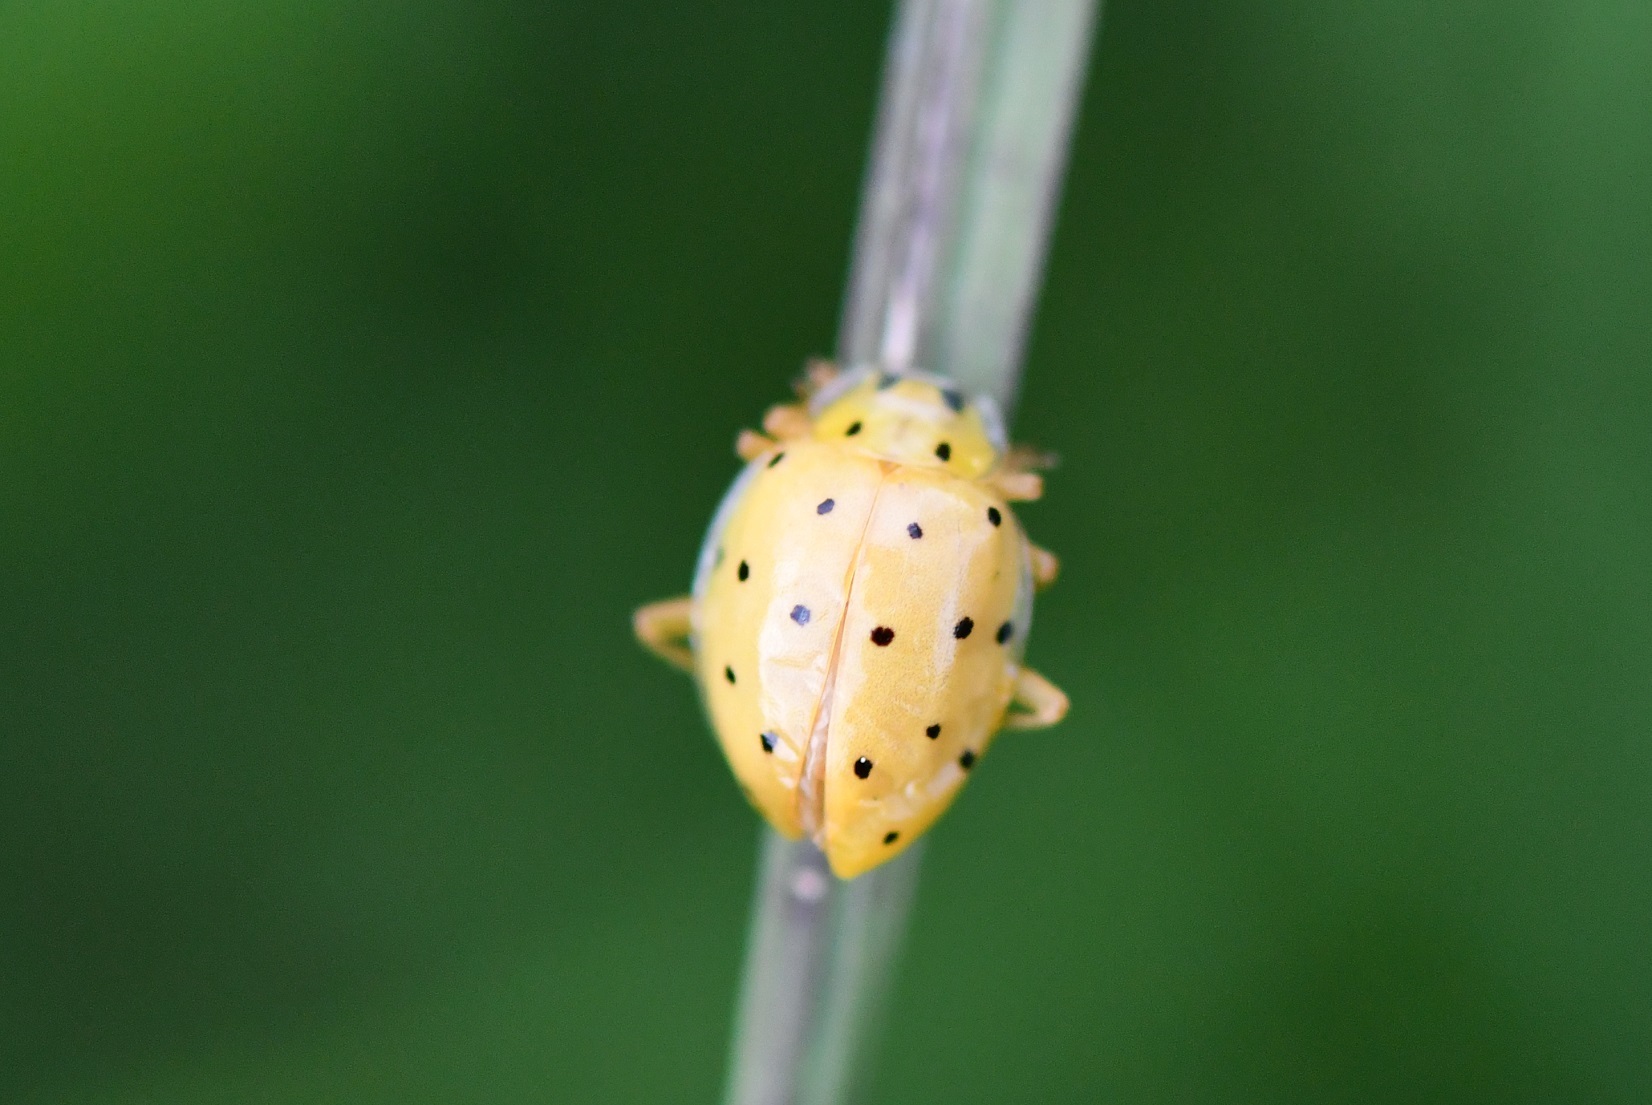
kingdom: Animalia
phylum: Arthropoda
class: Insecta
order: Coleoptera
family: Coccinellidae
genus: Neohalyzia
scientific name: Neohalyzia
